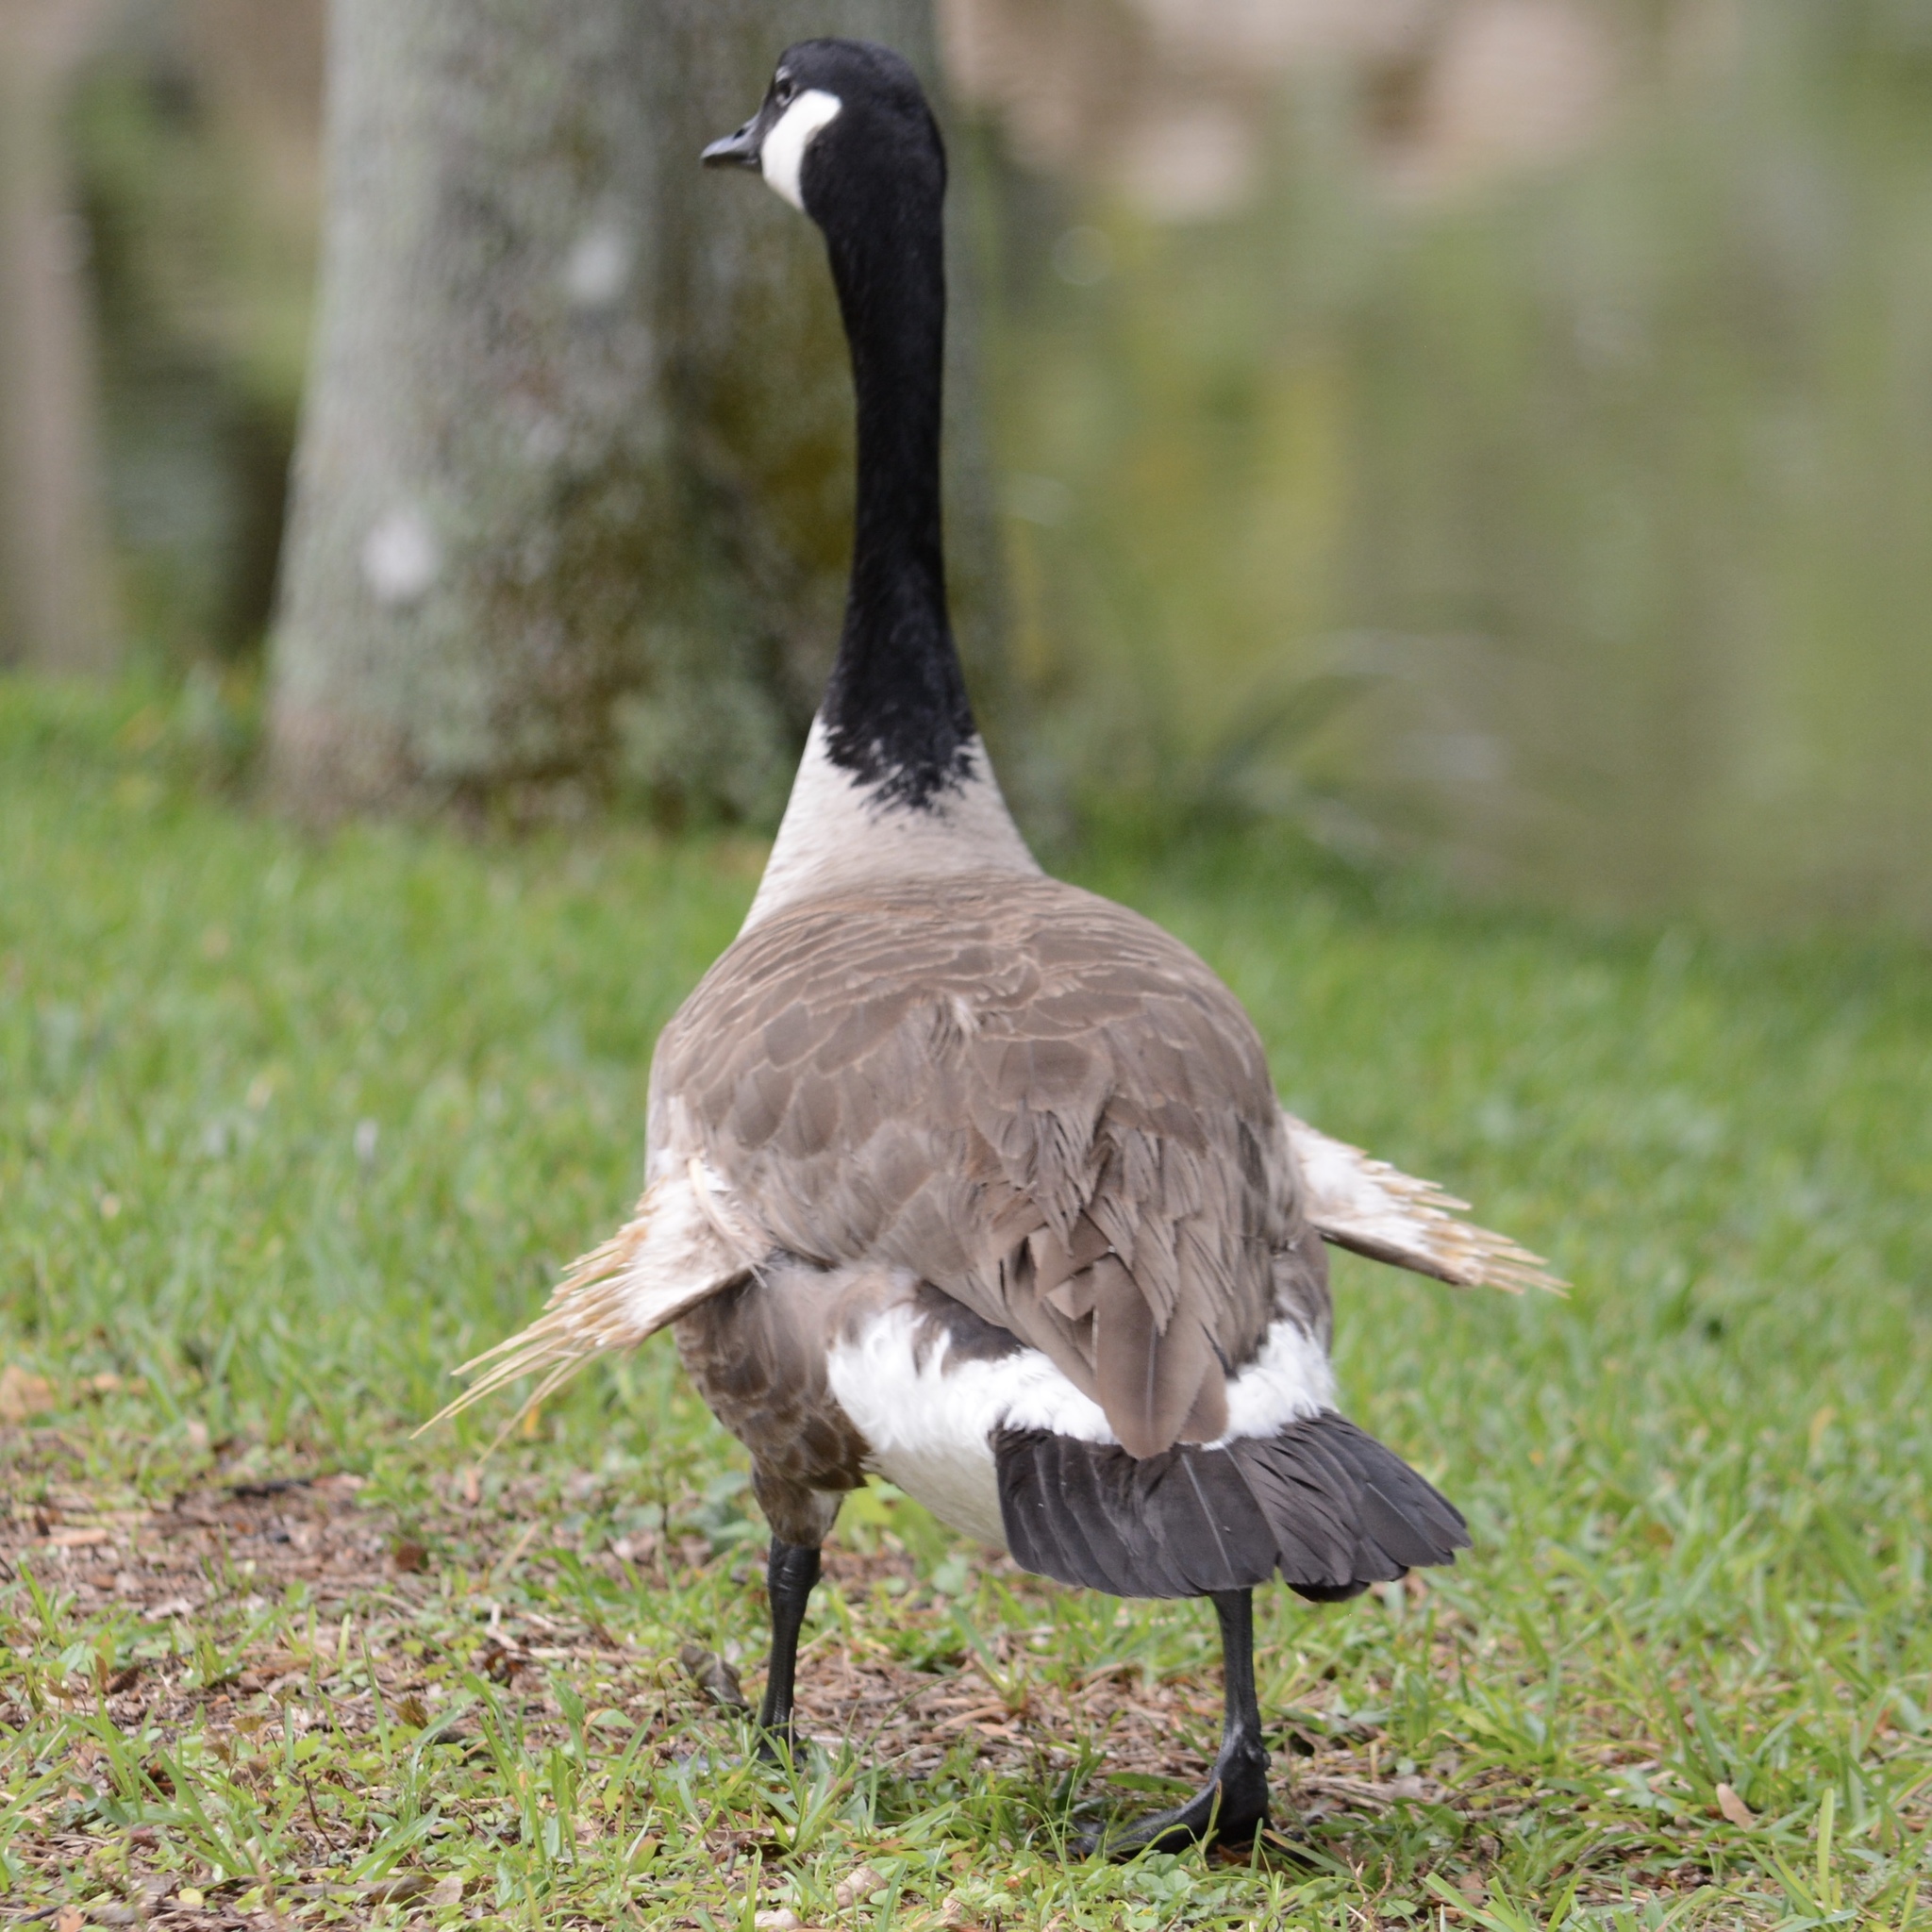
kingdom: Animalia
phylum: Chordata
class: Aves
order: Anseriformes
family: Anatidae
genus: Branta
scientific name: Branta canadensis
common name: Canada goose
